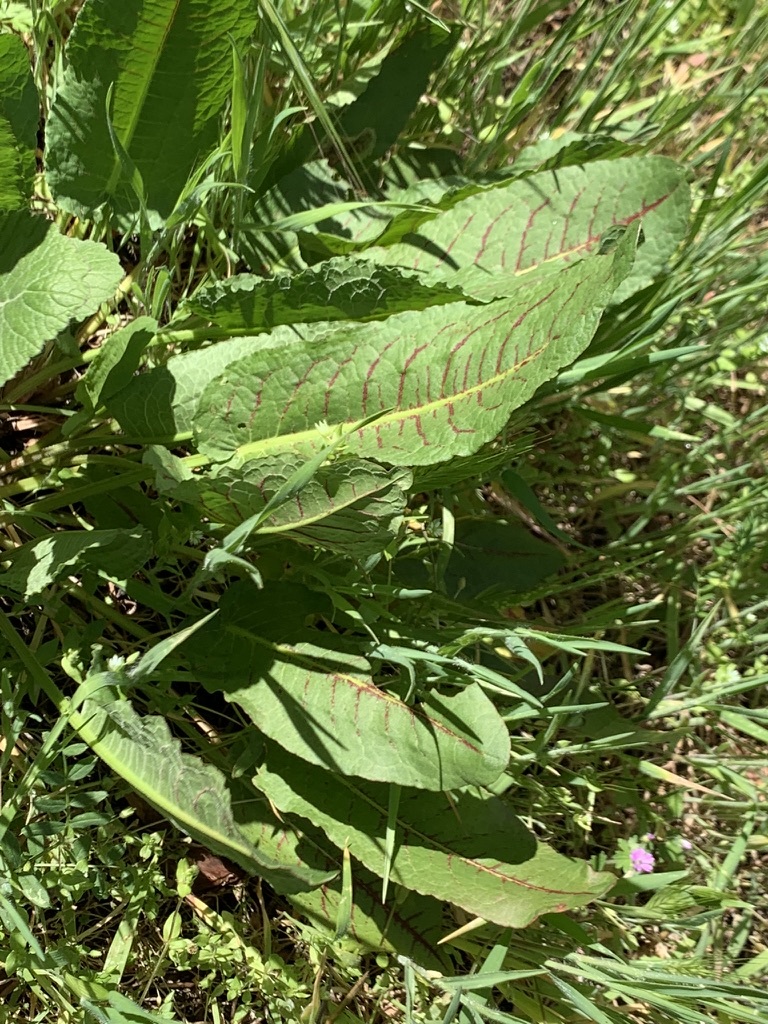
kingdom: Plantae
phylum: Tracheophyta
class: Magnoliopsida
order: Caryophyllales
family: Polygonaceae
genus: Rumex
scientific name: Rumex sanguineus
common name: Wood dock
